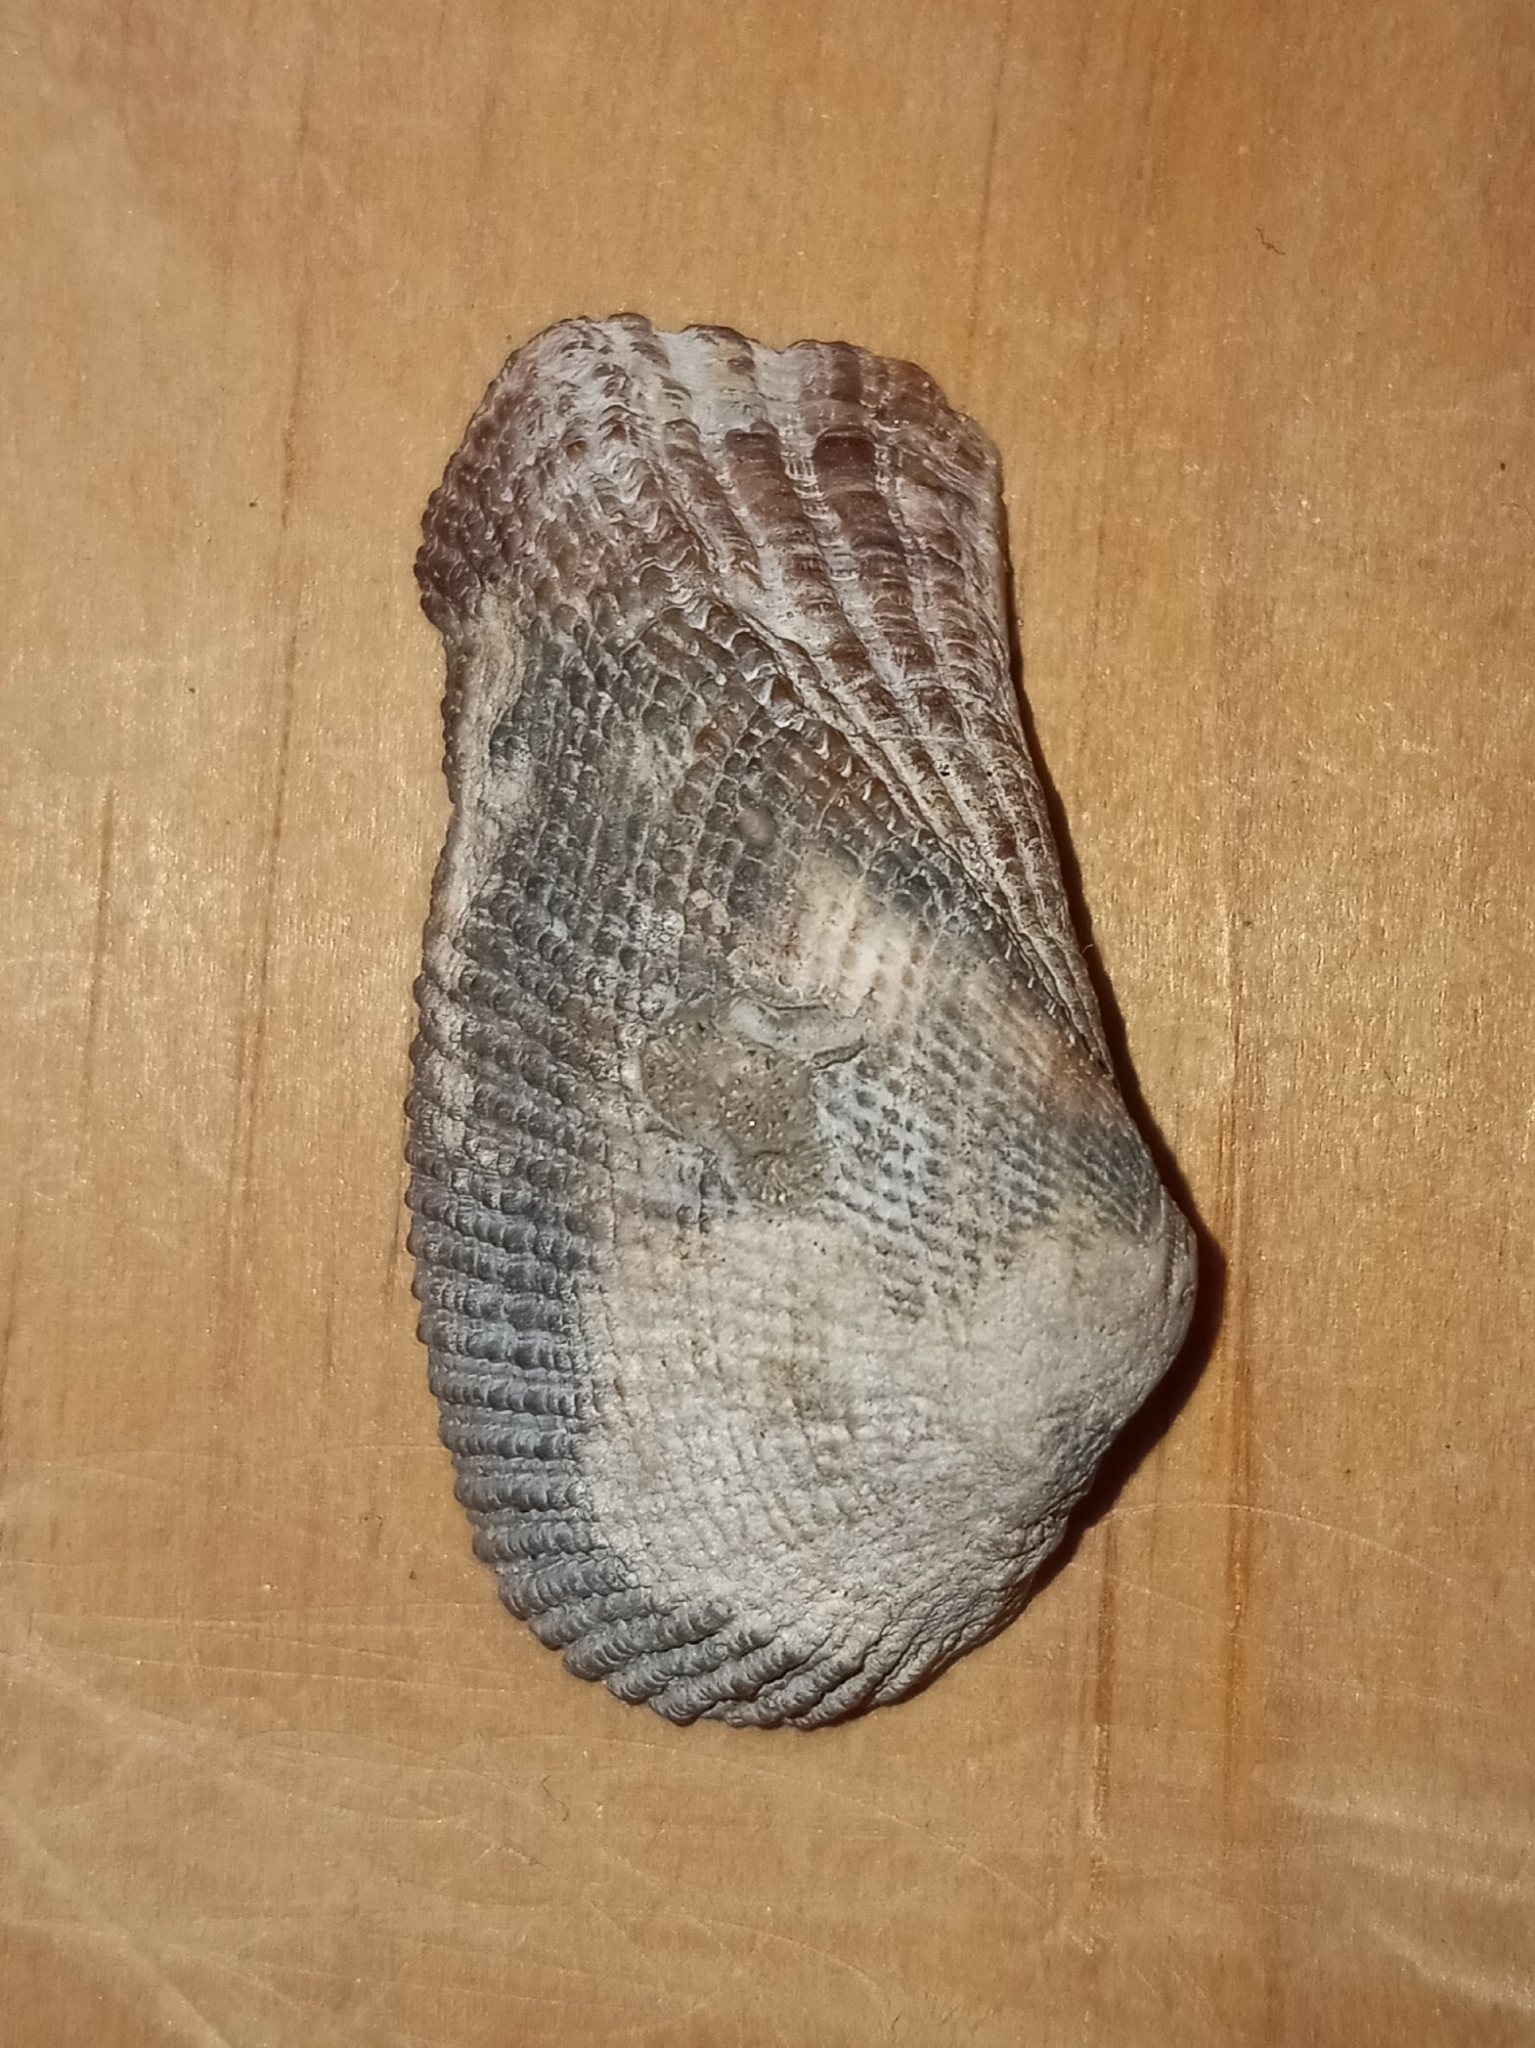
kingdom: Animalia
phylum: Mollusca
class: Bivalvia
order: Arcida
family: Arcidae
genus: Lamarcka
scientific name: Lamarcka imbricata
